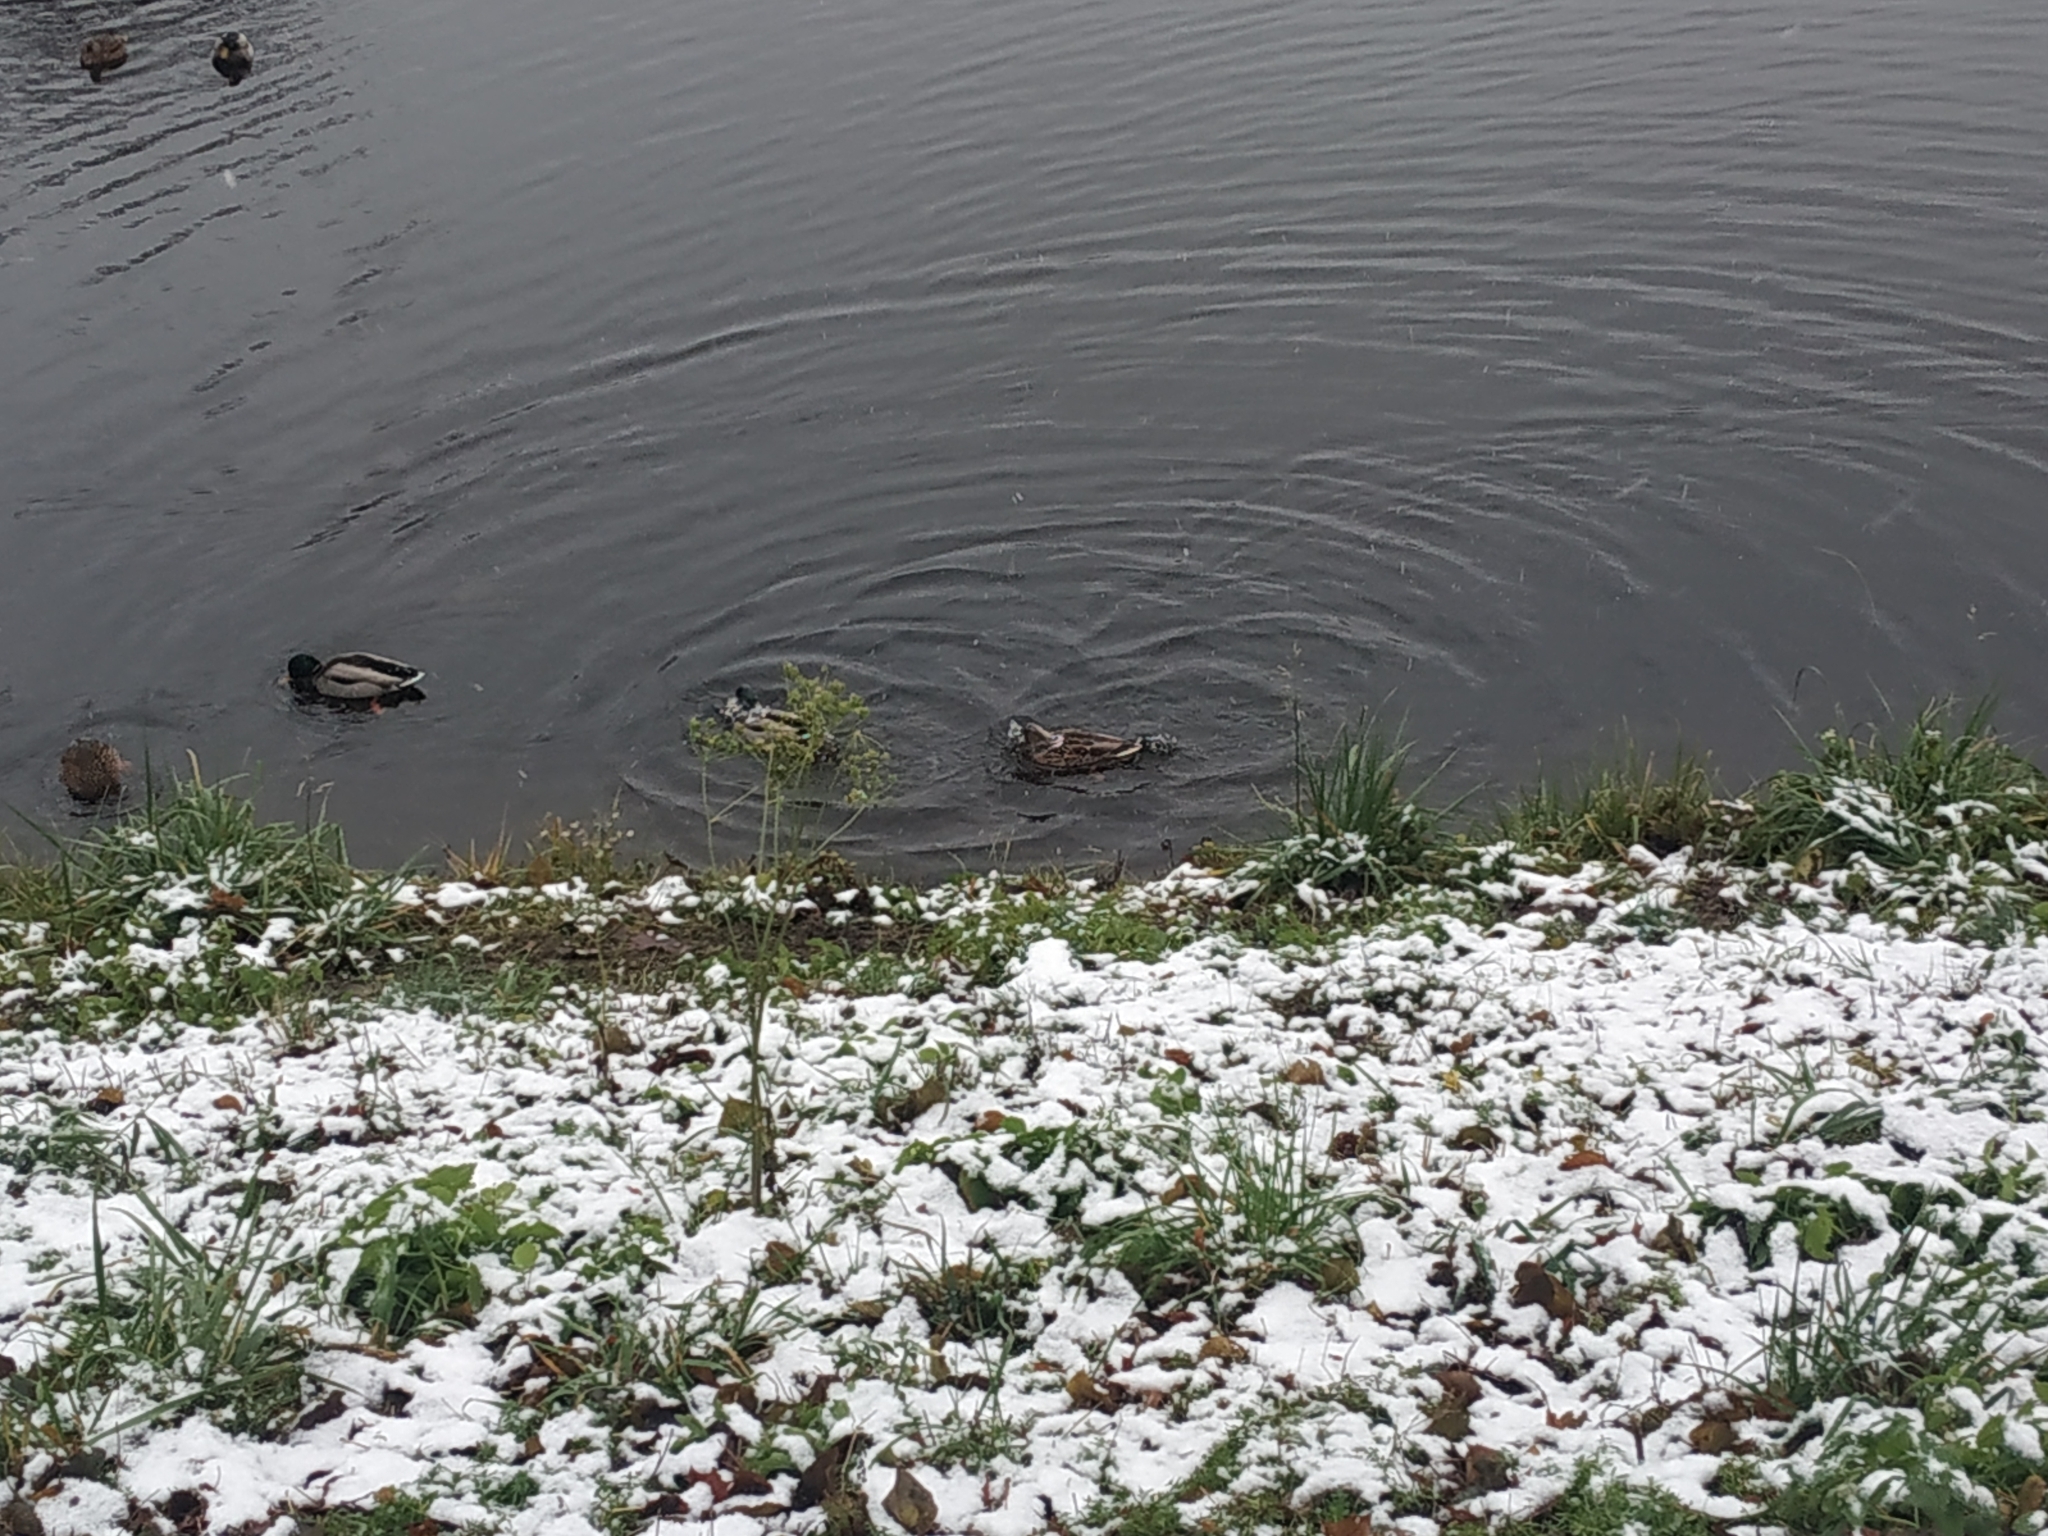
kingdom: Animalia
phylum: Chordata
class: Aves
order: Anseriformes
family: Anatidae
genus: Anas
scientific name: Anas platyrhynchos
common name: Mallard
